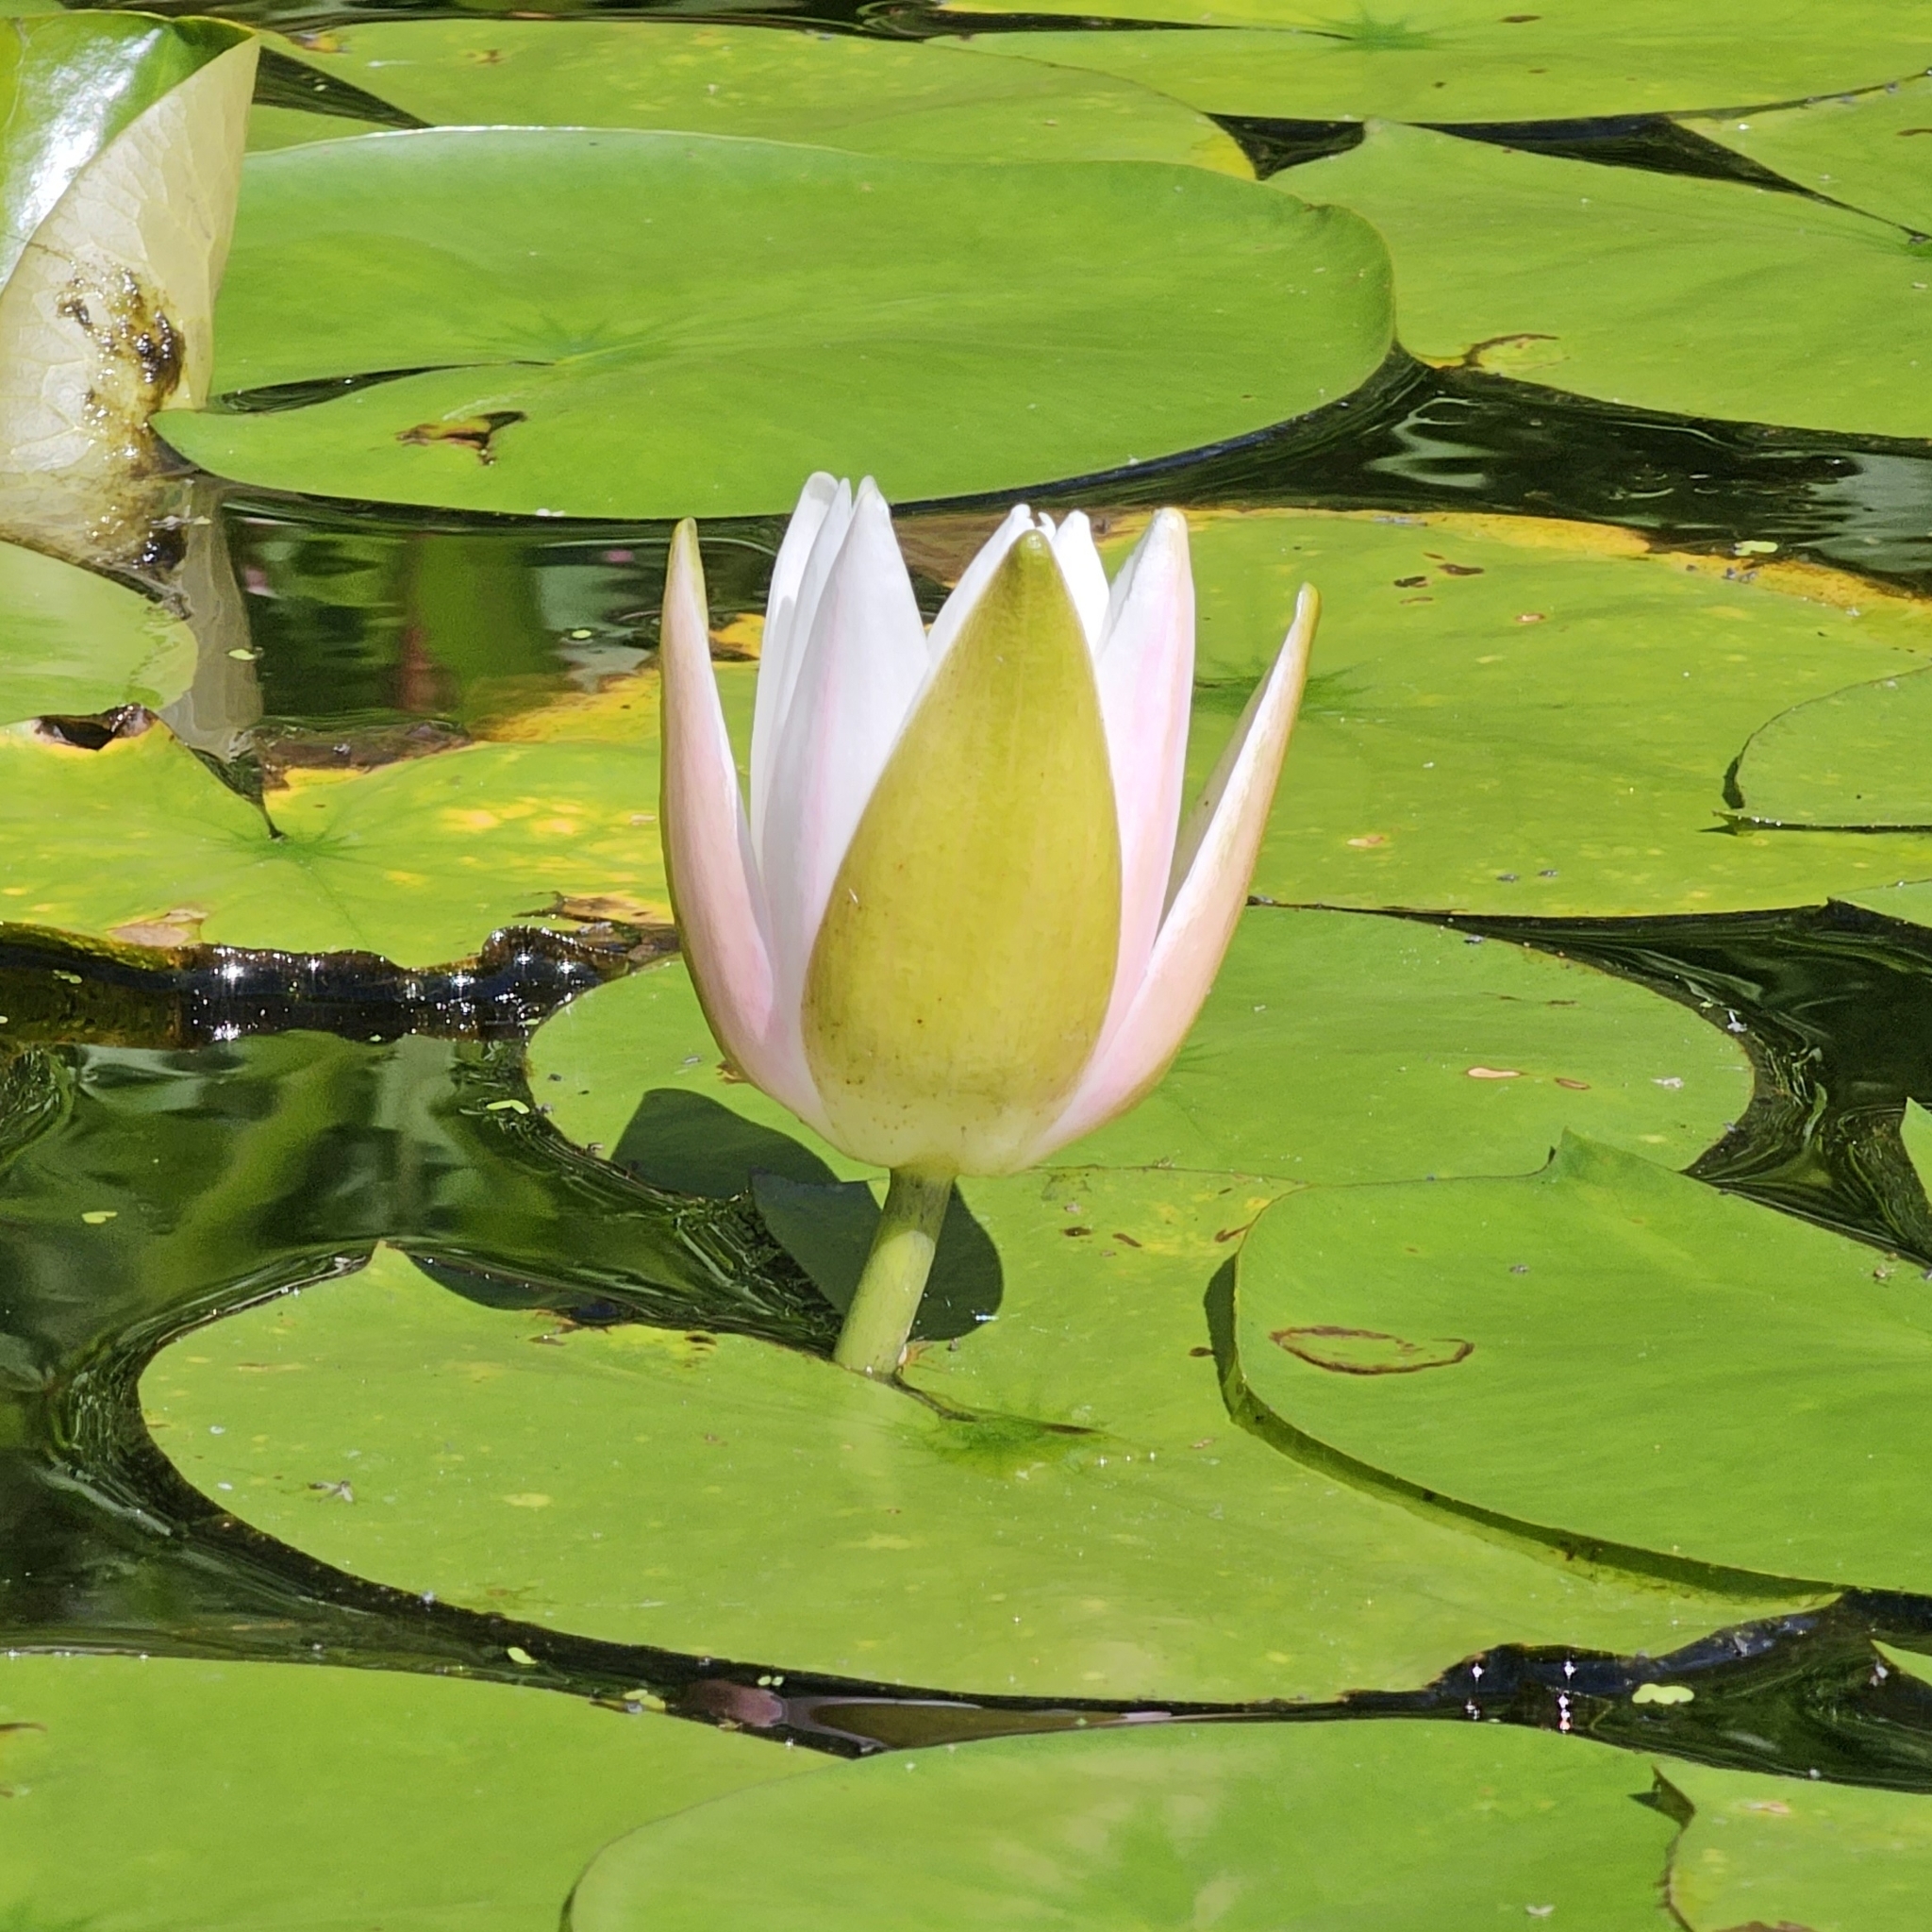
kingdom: Plantae
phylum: Tracheophyta
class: Magnoliopsida
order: Nymphaeales
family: Nymphaeaceae
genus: Nymphaea
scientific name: Nymphaea odorata
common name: Fragrant water-lily
